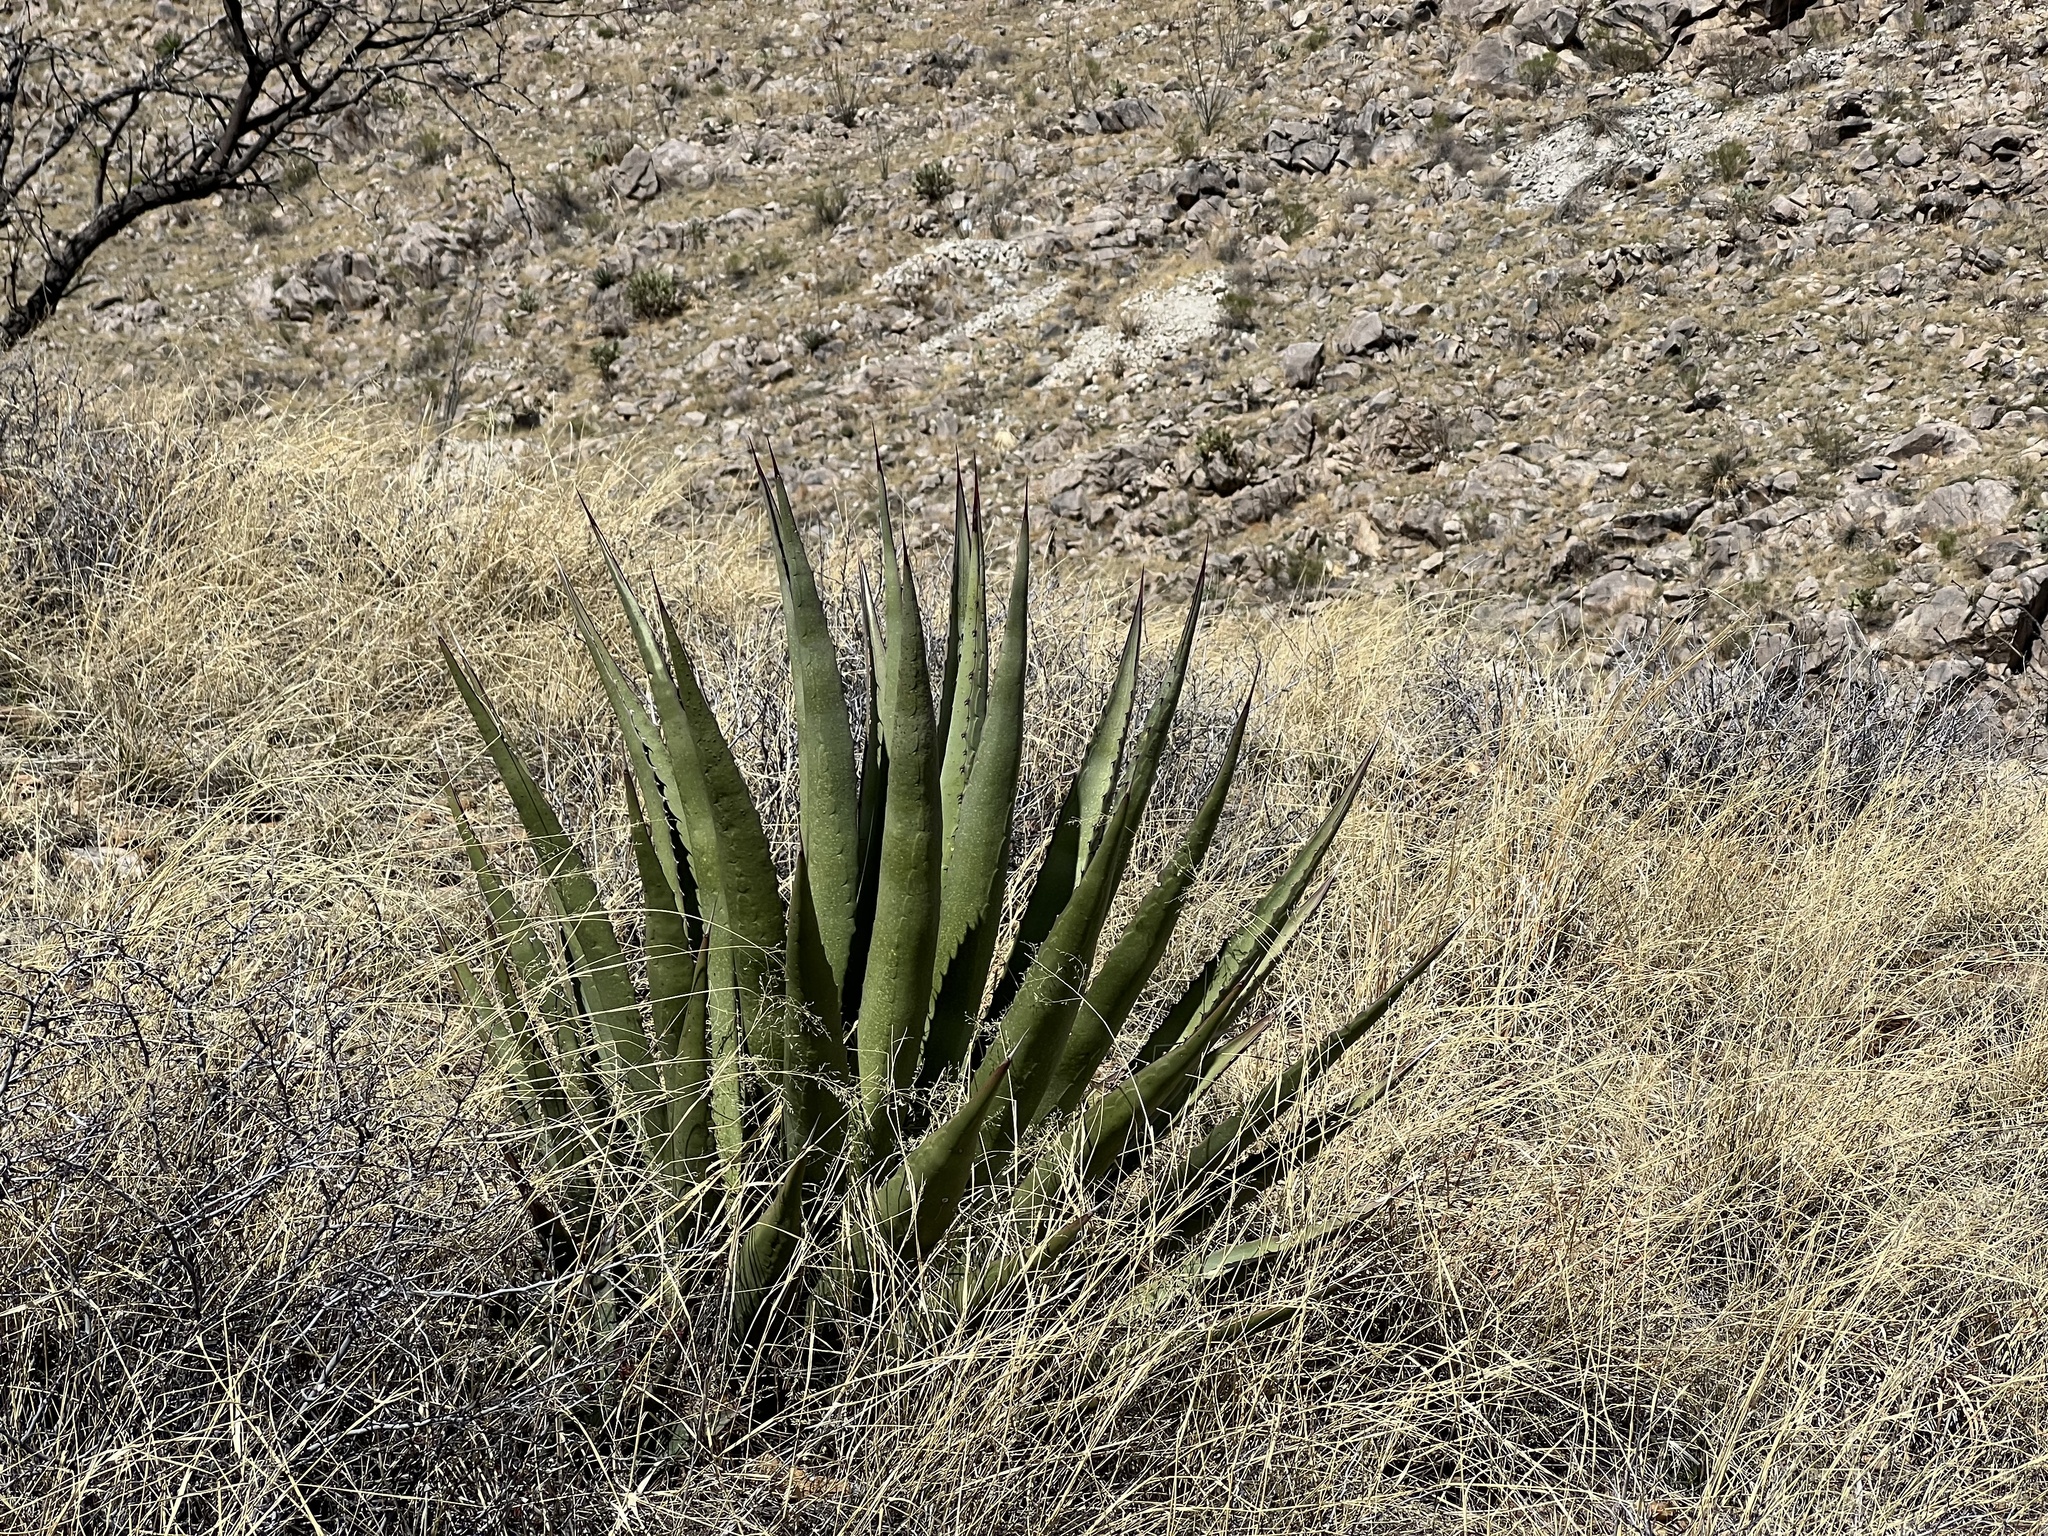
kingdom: Plantae
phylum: Tracheophyta
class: Liliopsida
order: Asparagales
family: Asparagaceae
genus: Agave
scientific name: Agave palmeri
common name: Palmer agave
